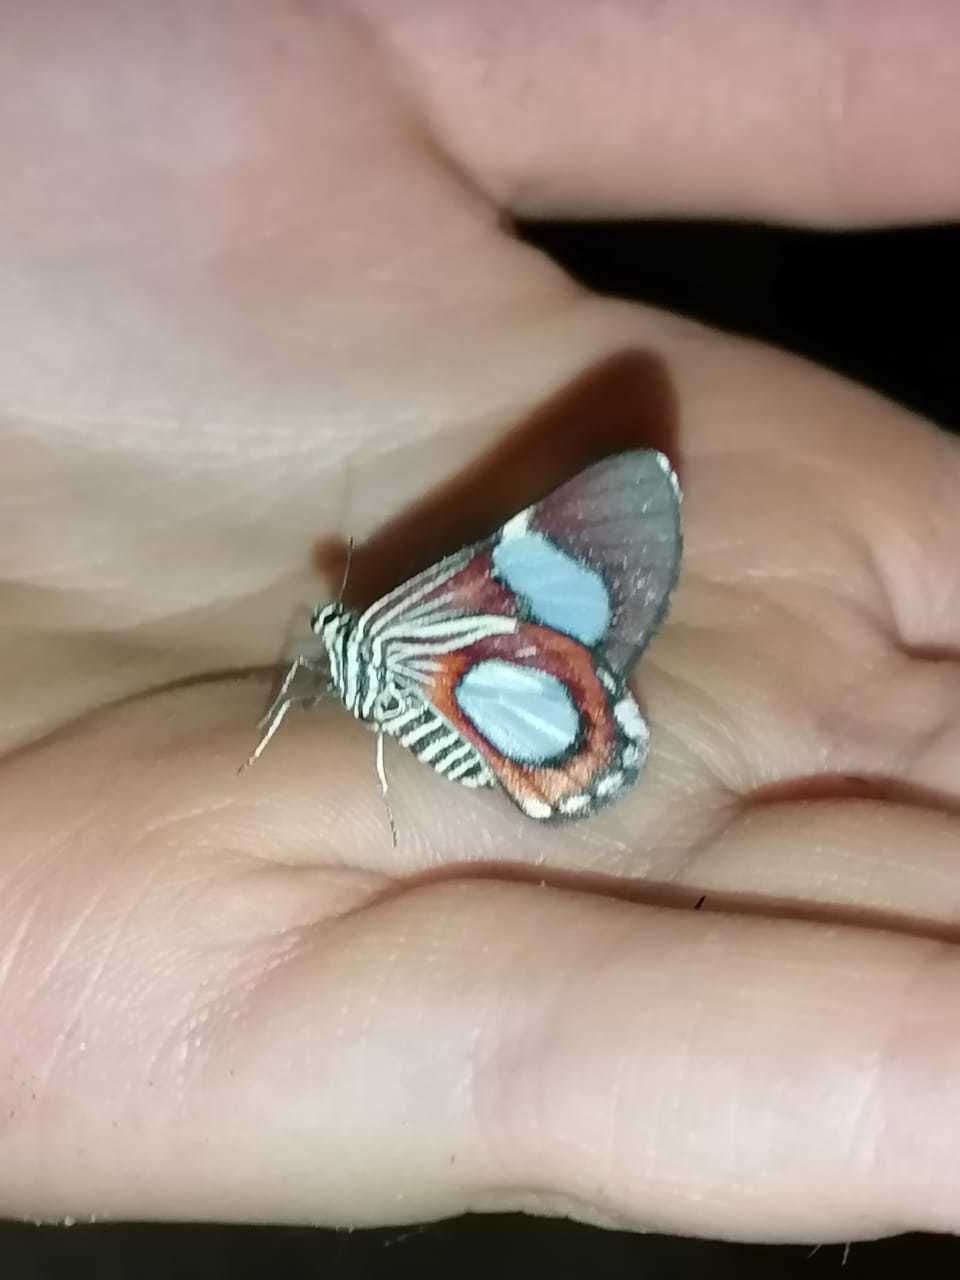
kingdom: Animalia
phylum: Arthropoda
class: Insecta
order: Lepidoptera
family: Geometridae
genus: Trocherateina
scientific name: Trocherateina specularia
